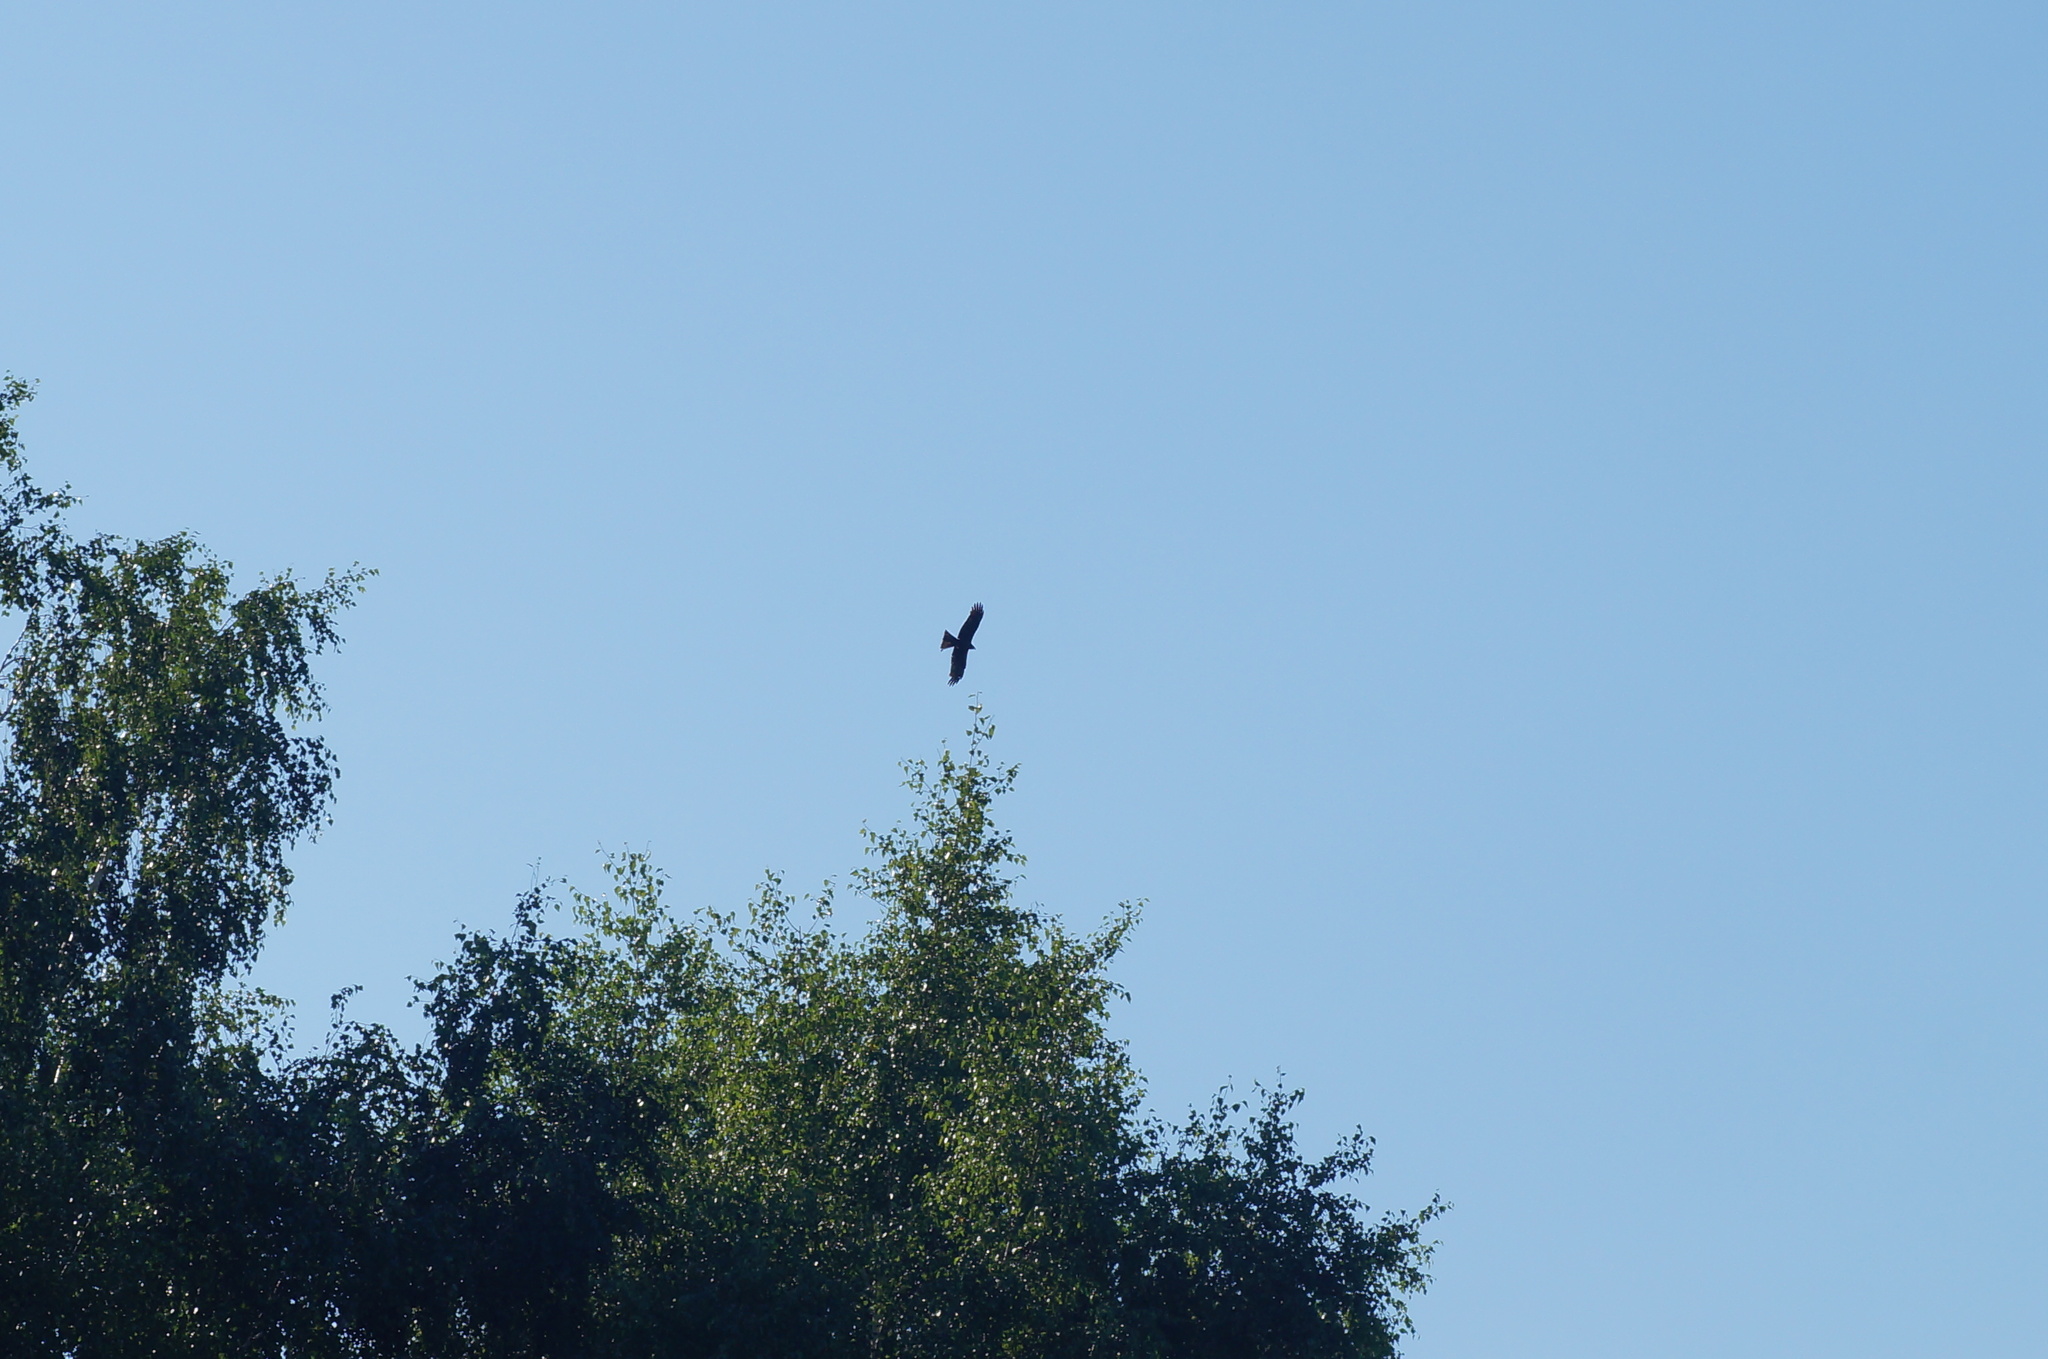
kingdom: Animalia
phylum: Chordata
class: Aves
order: Accipitriformes
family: Accipitridae
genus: Milvus
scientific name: Milvus migrans
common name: Black kite
